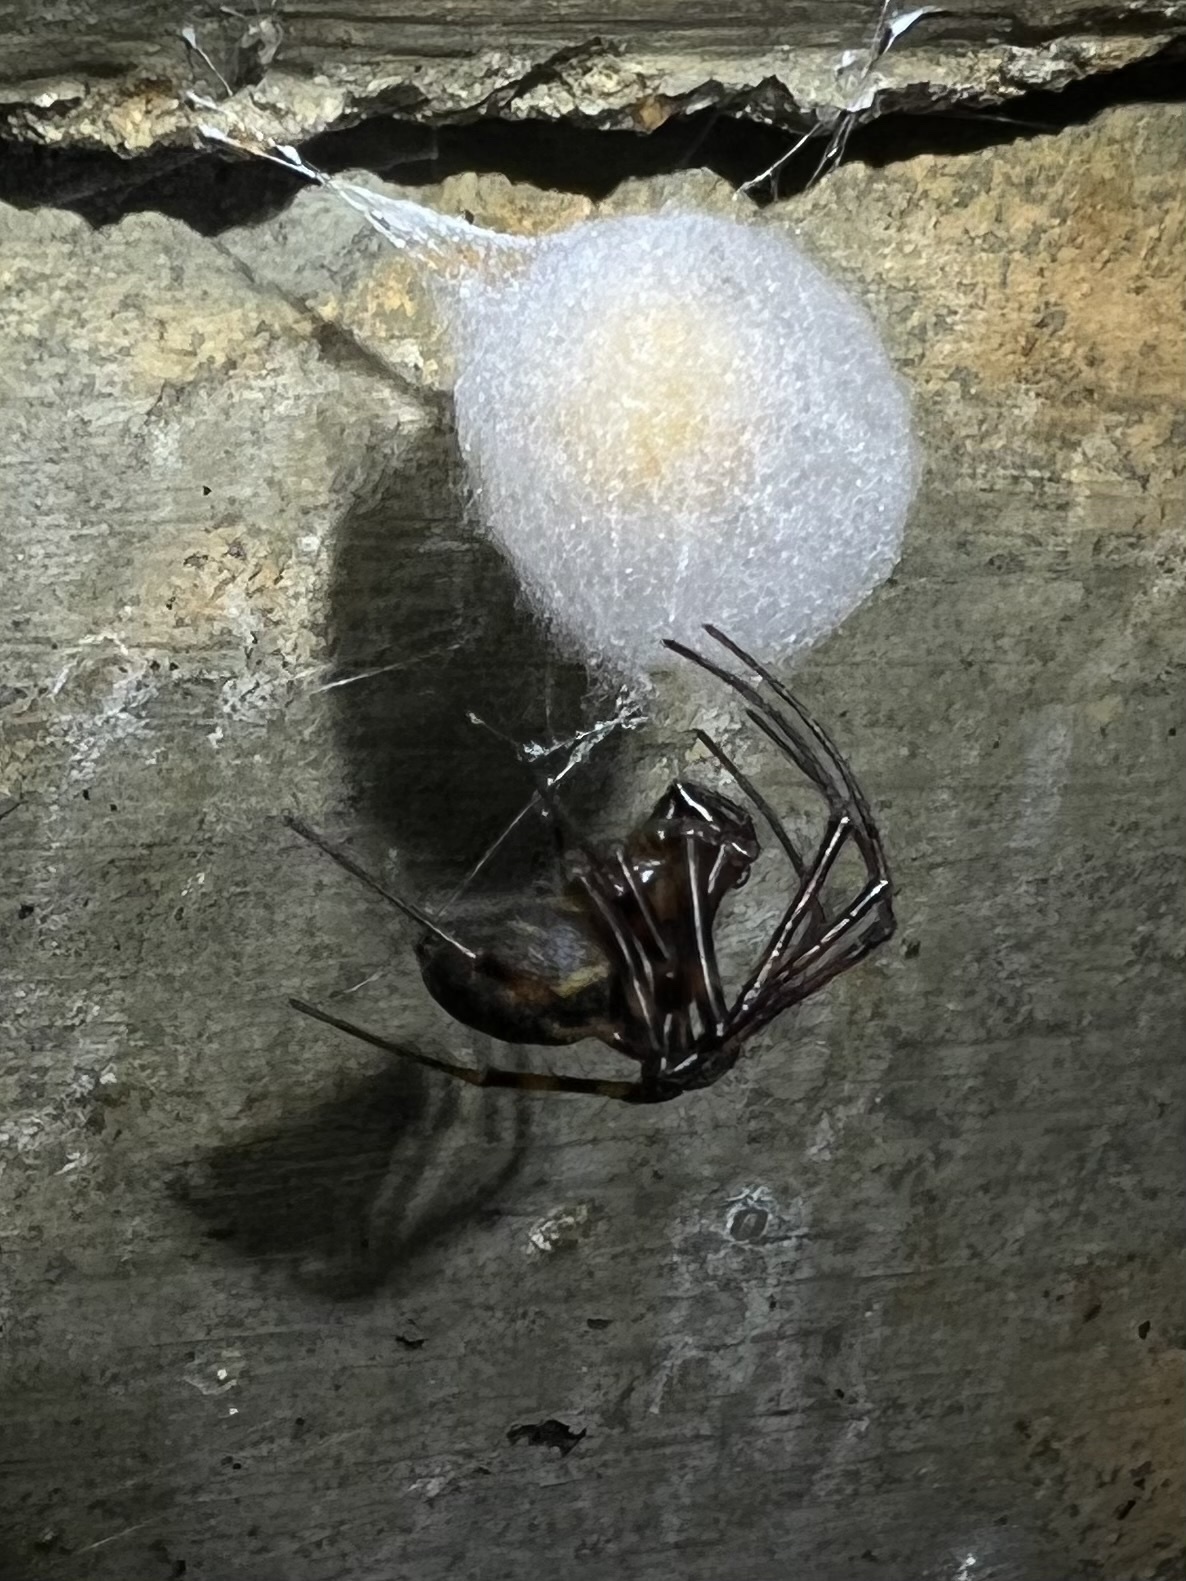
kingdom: Animalia
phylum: Arthropoda
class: Arachnida
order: Araneae
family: Tetragnathidae
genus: Meta
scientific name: Meta ovalis
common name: Eastern cave long-jawed spider
